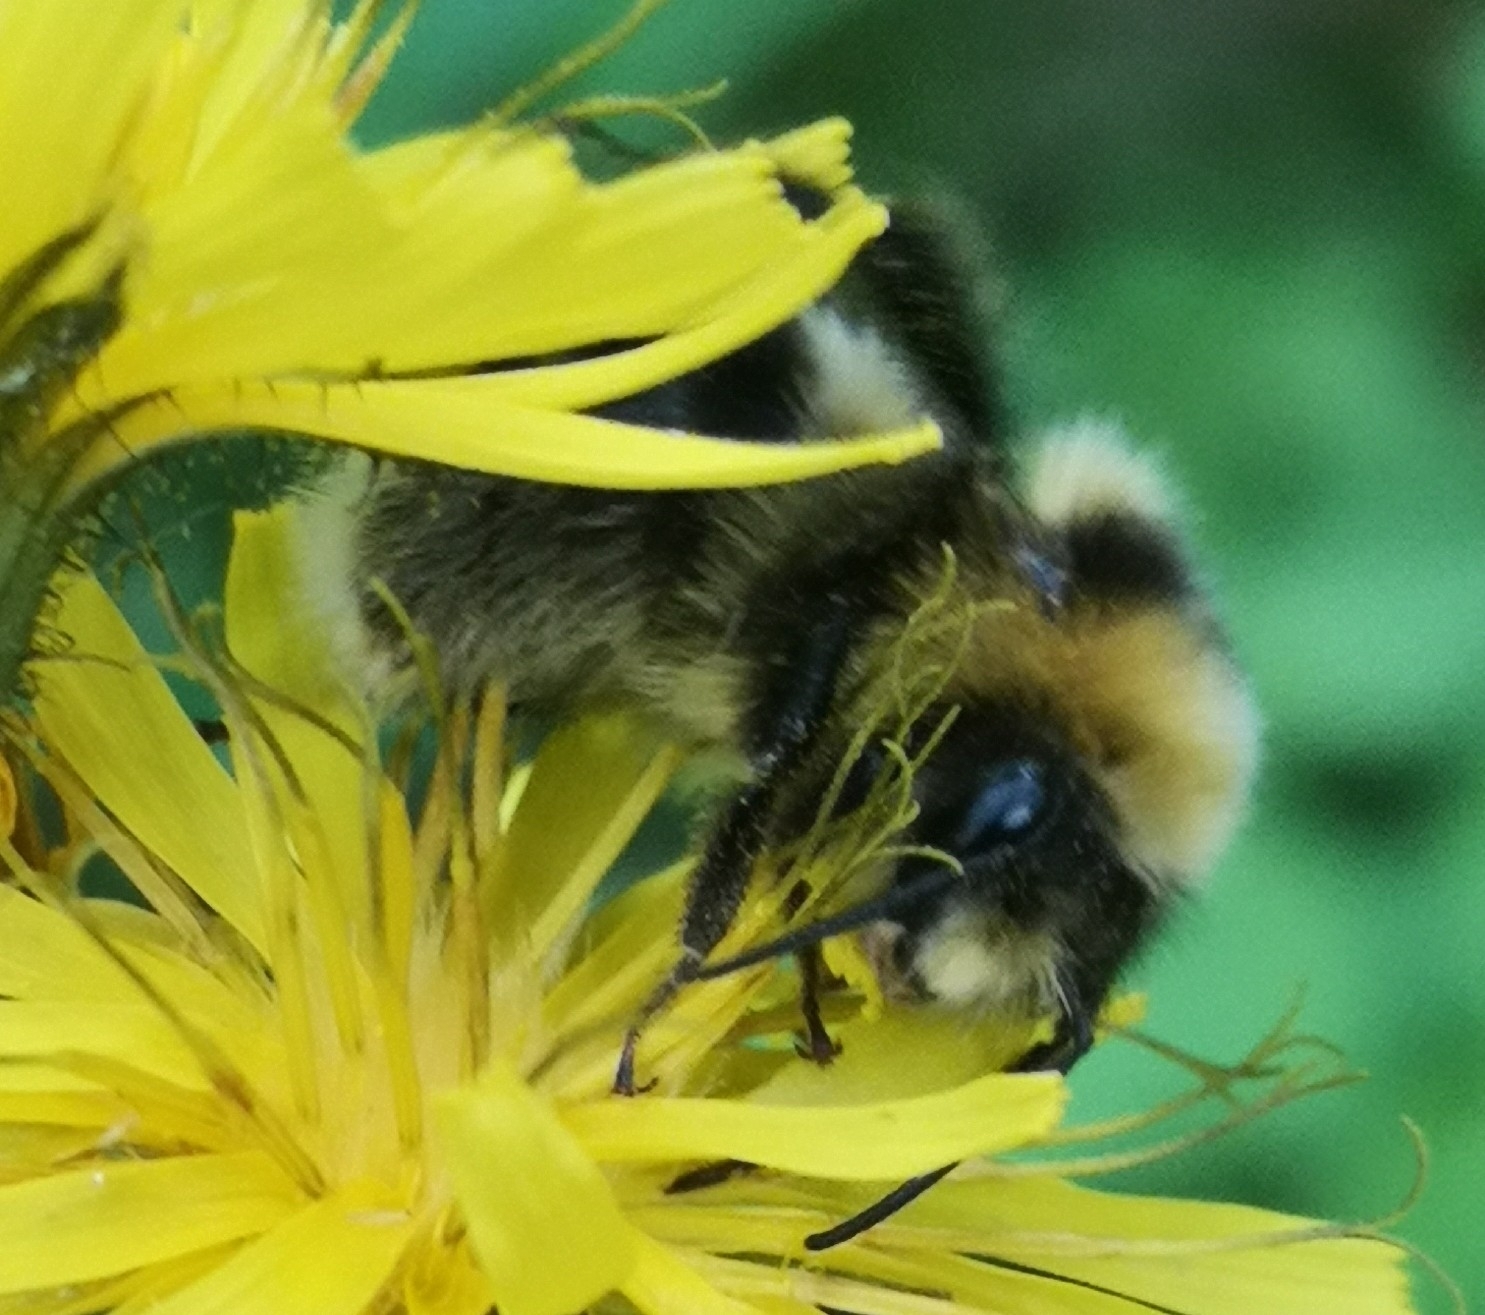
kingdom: Animalia
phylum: Arthropoda
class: Insecta
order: Hymenoptera
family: Apidae
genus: Bombus
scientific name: Bombus jonellus
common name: Heath humble-bee
